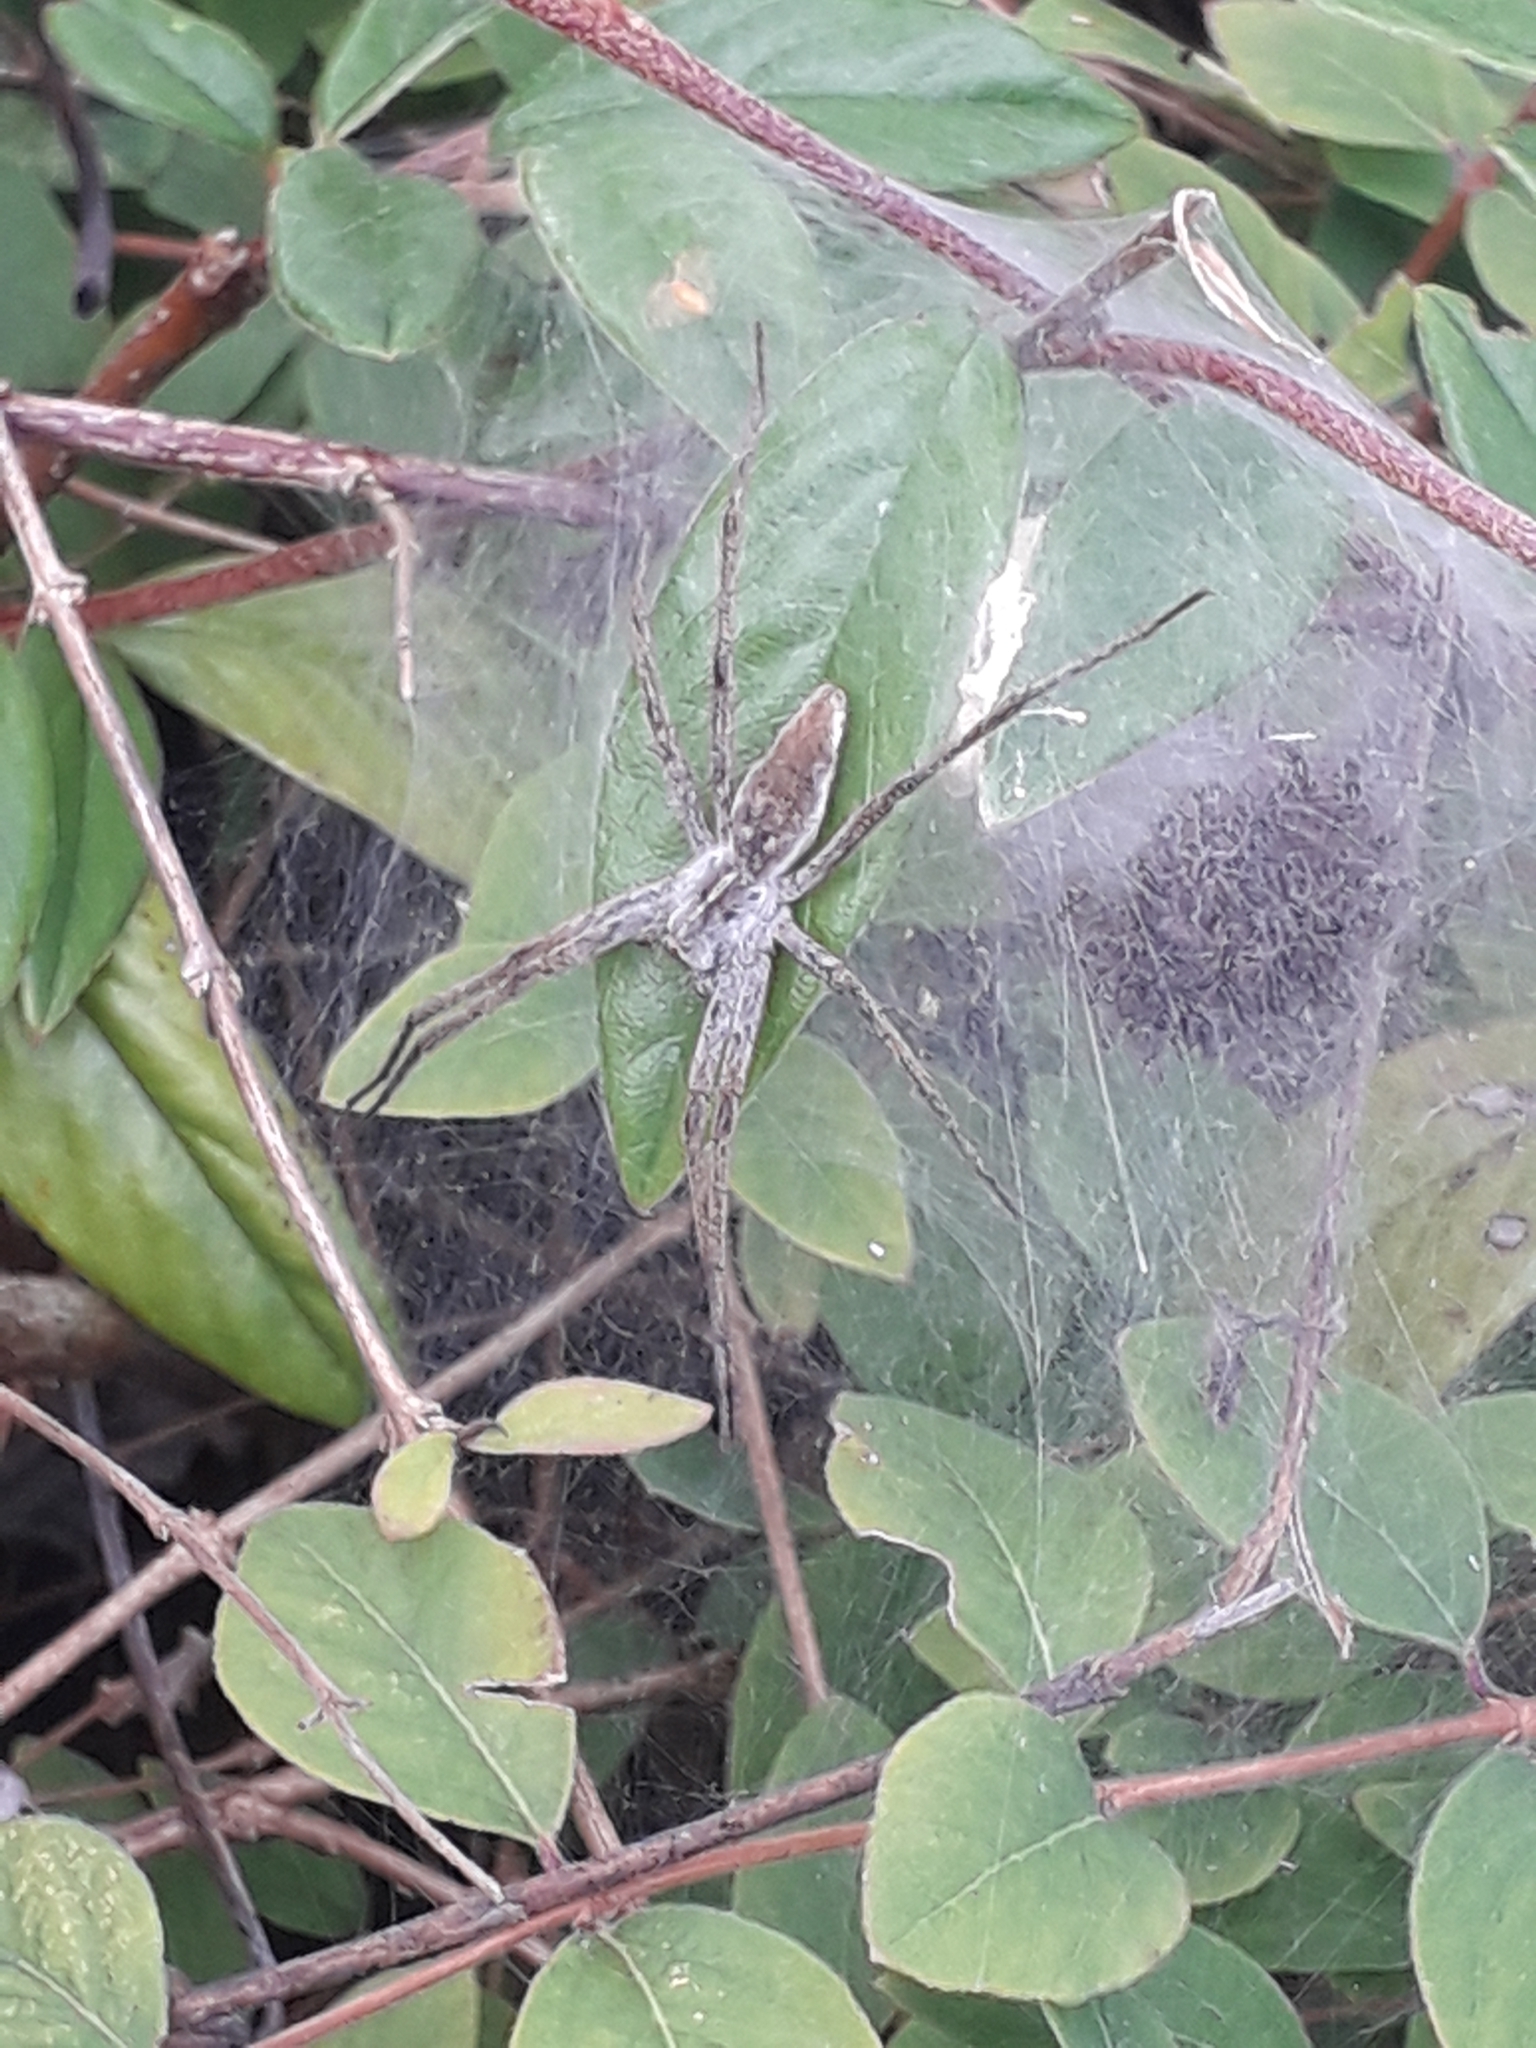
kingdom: Animalia
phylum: Arthropoda
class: Arachnida
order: Araneae
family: Pisauridae
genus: Pisaura
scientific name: Pisaura mirabilis
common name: Tent spider
